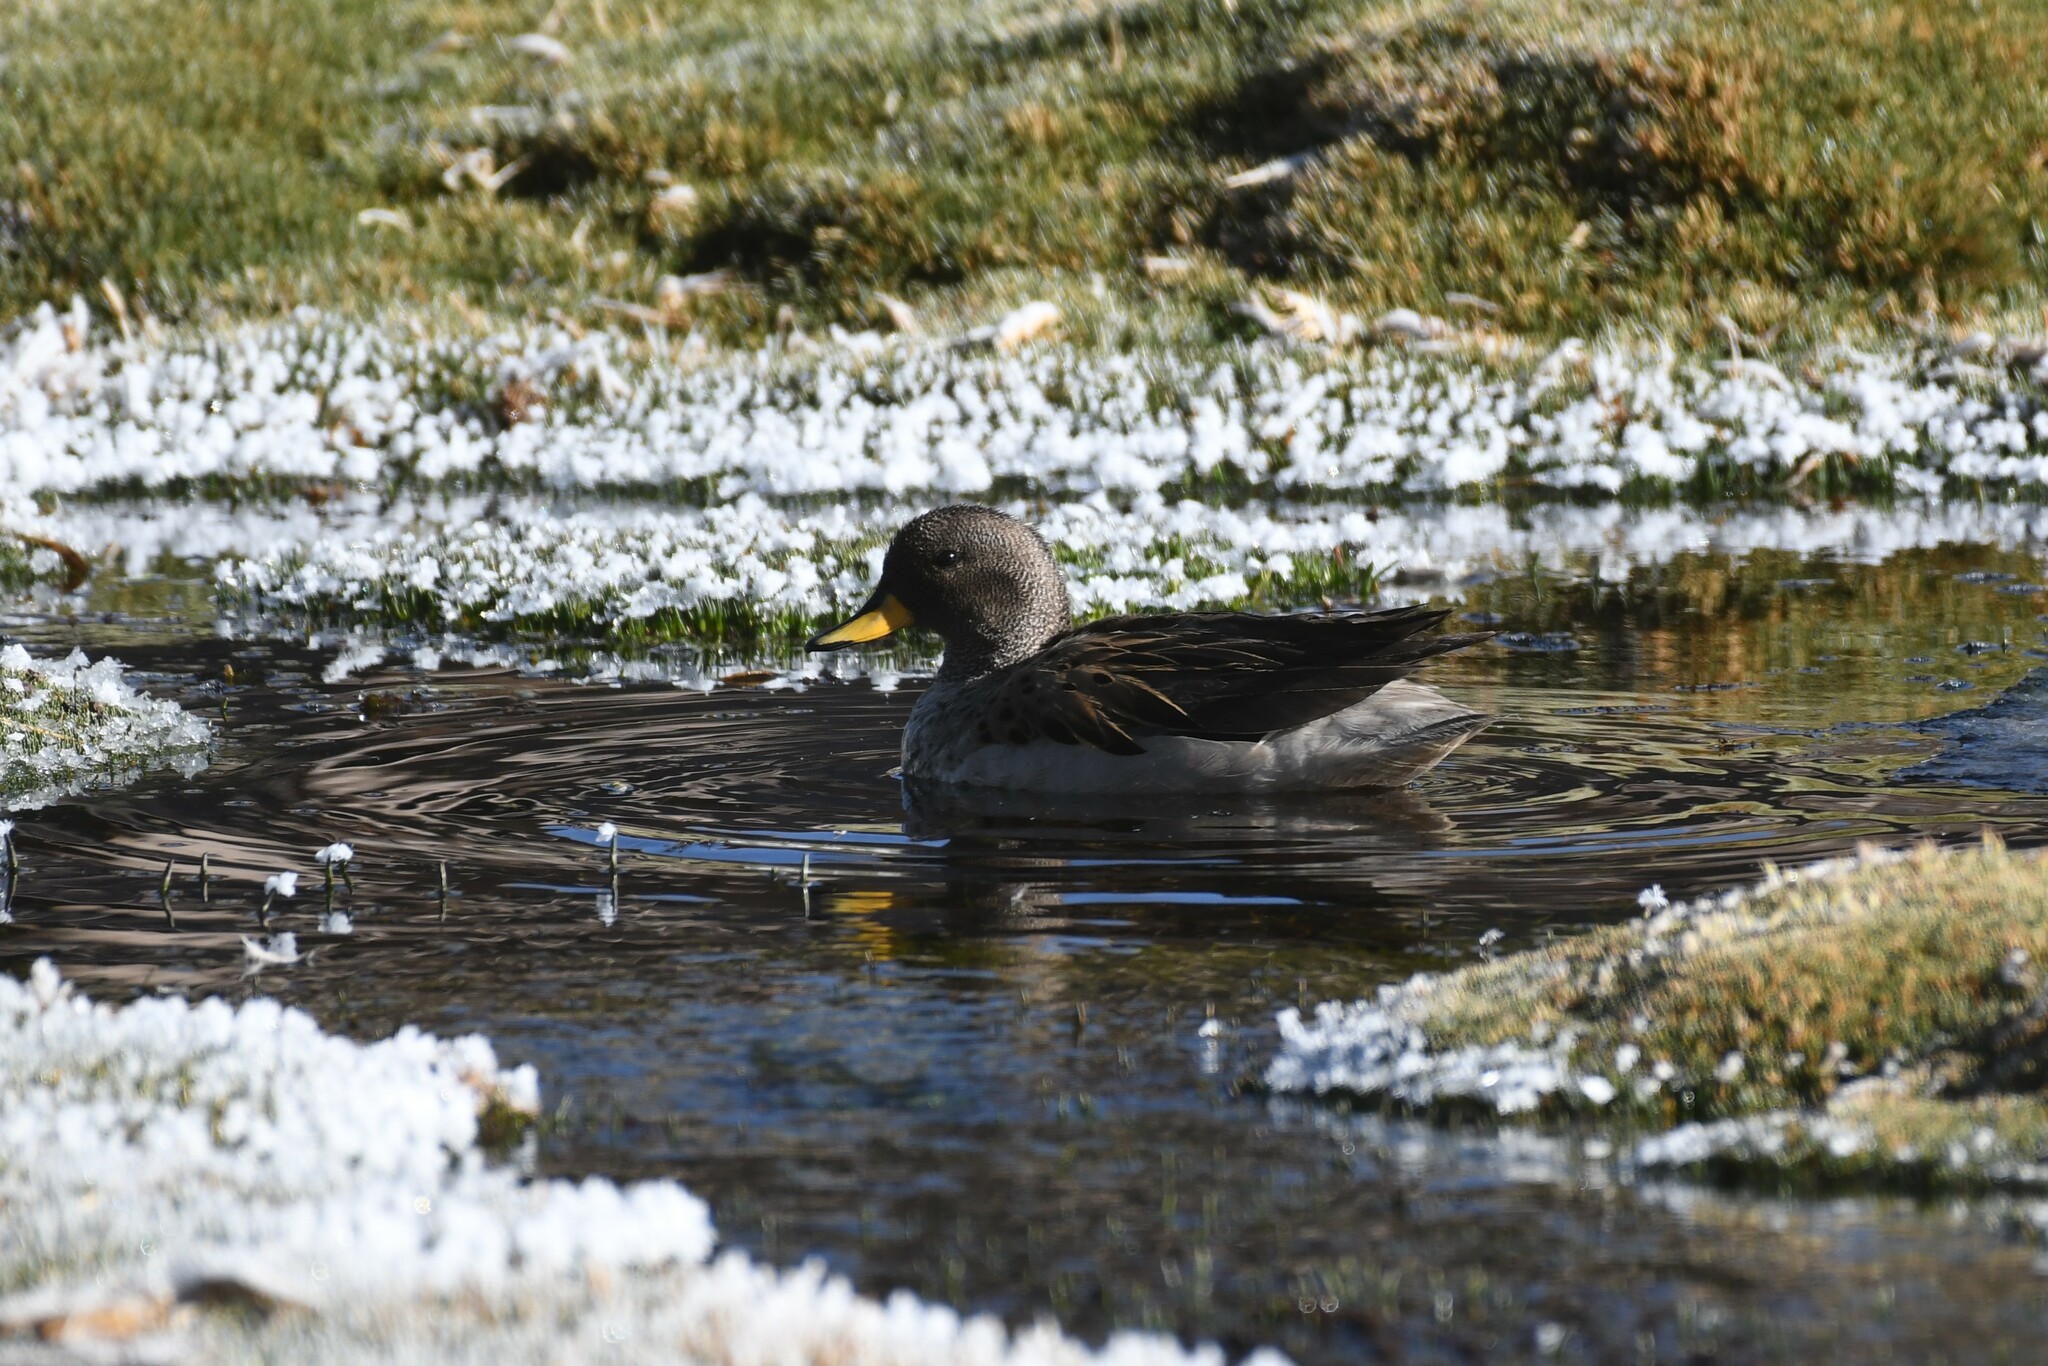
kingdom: Animalia
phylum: Chordata
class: Aves
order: Anseriformes
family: Anatidae
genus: Anas
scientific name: Anas flavirostris
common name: Yellow-billed teal
